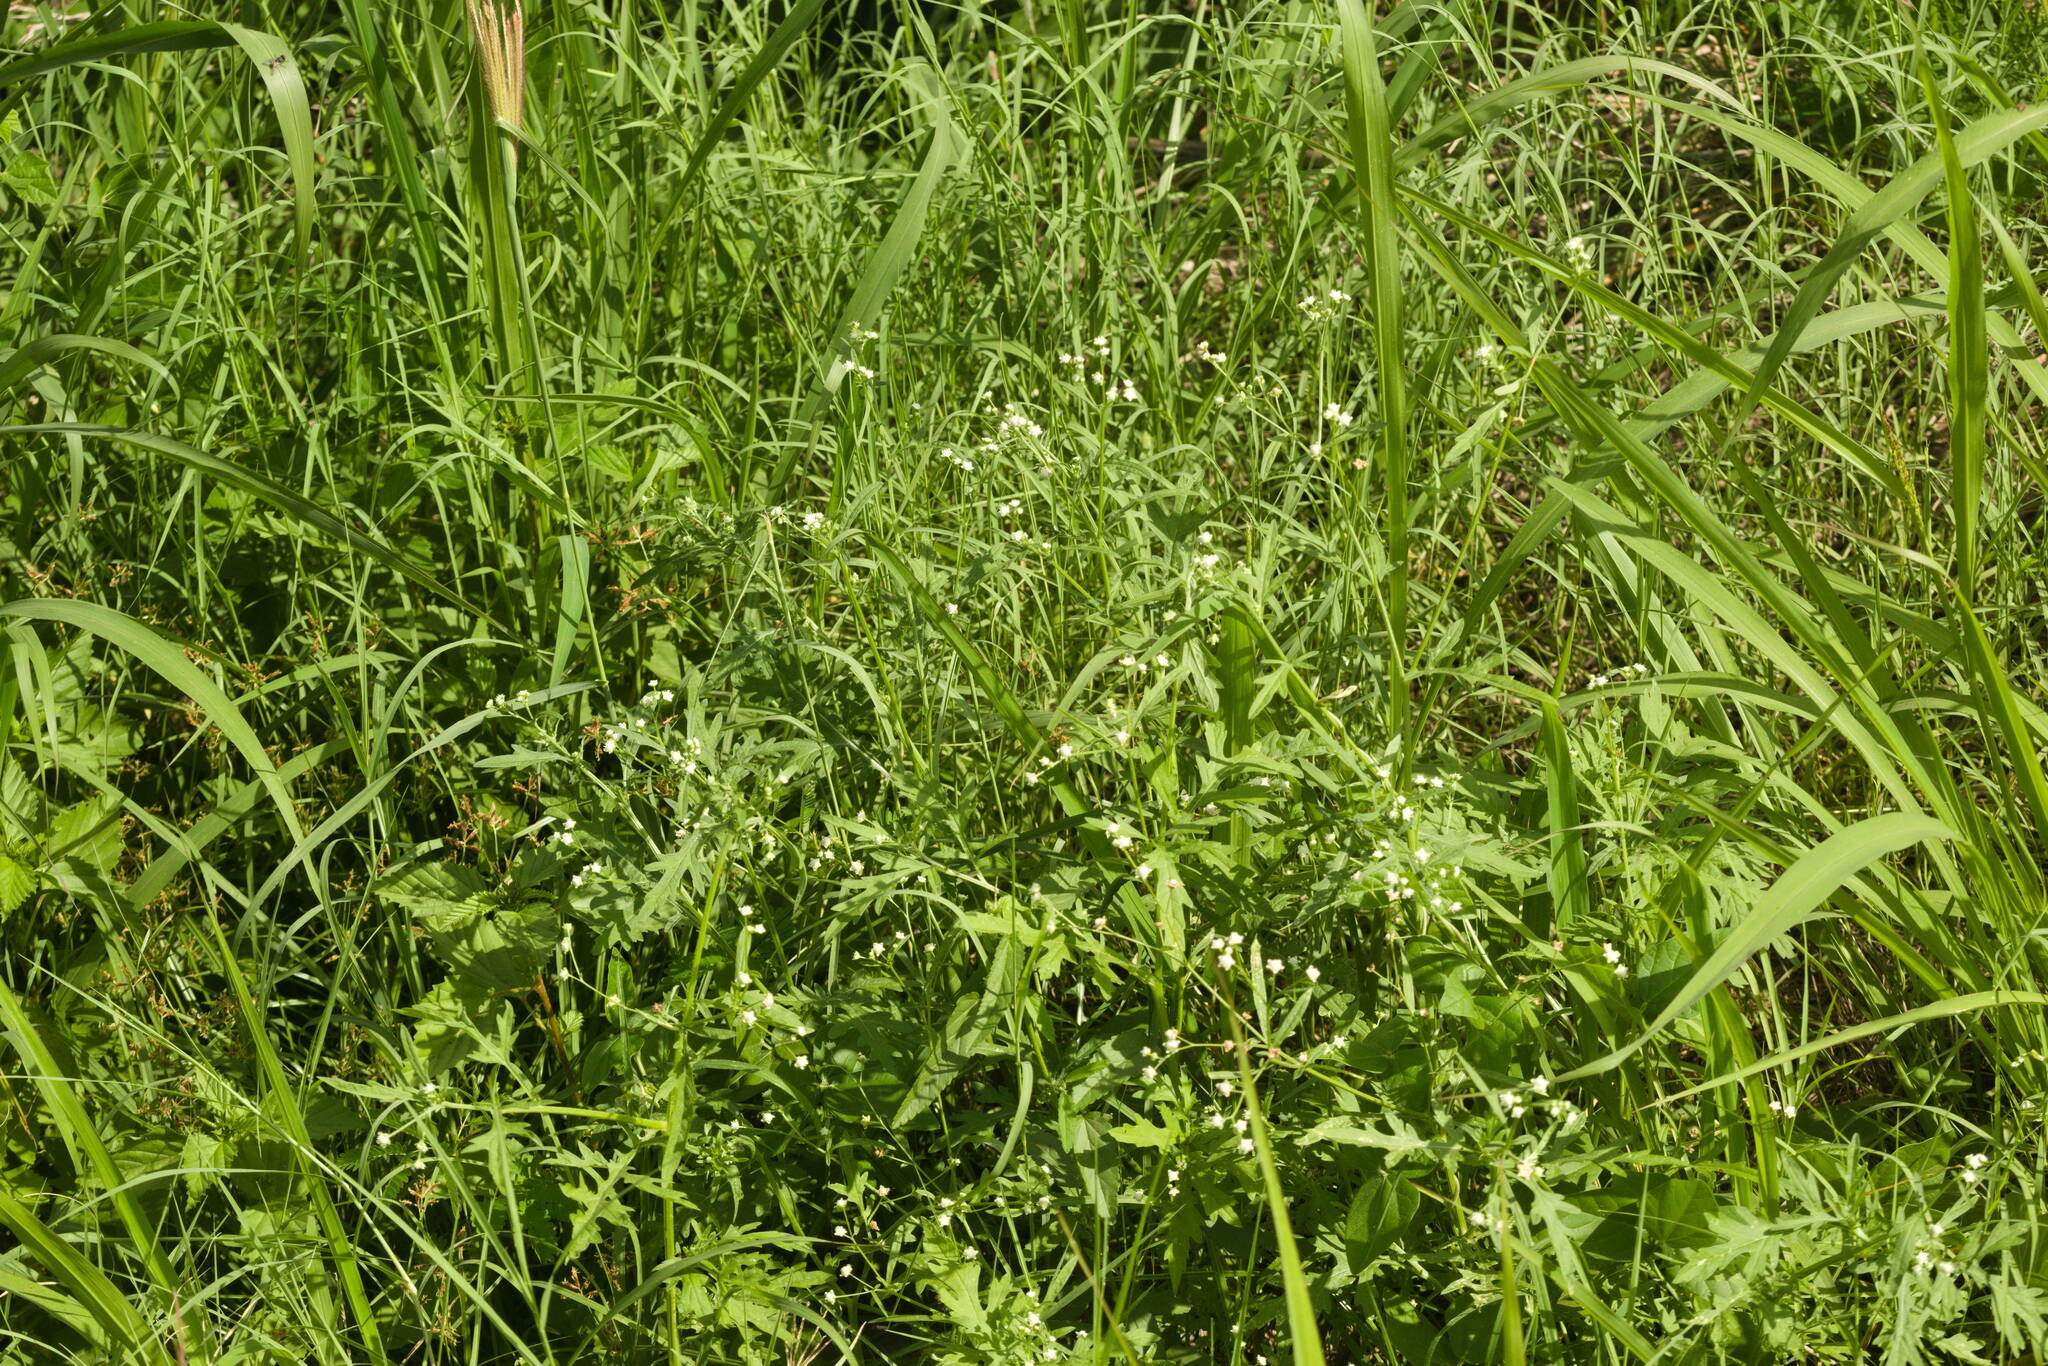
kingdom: Plantae
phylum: Tracheophyta
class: Magnoliopsida
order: Asterales
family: Asteraceae
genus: Parthenium
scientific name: Parthenium hysterophorus
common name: Santa maria feverfew
